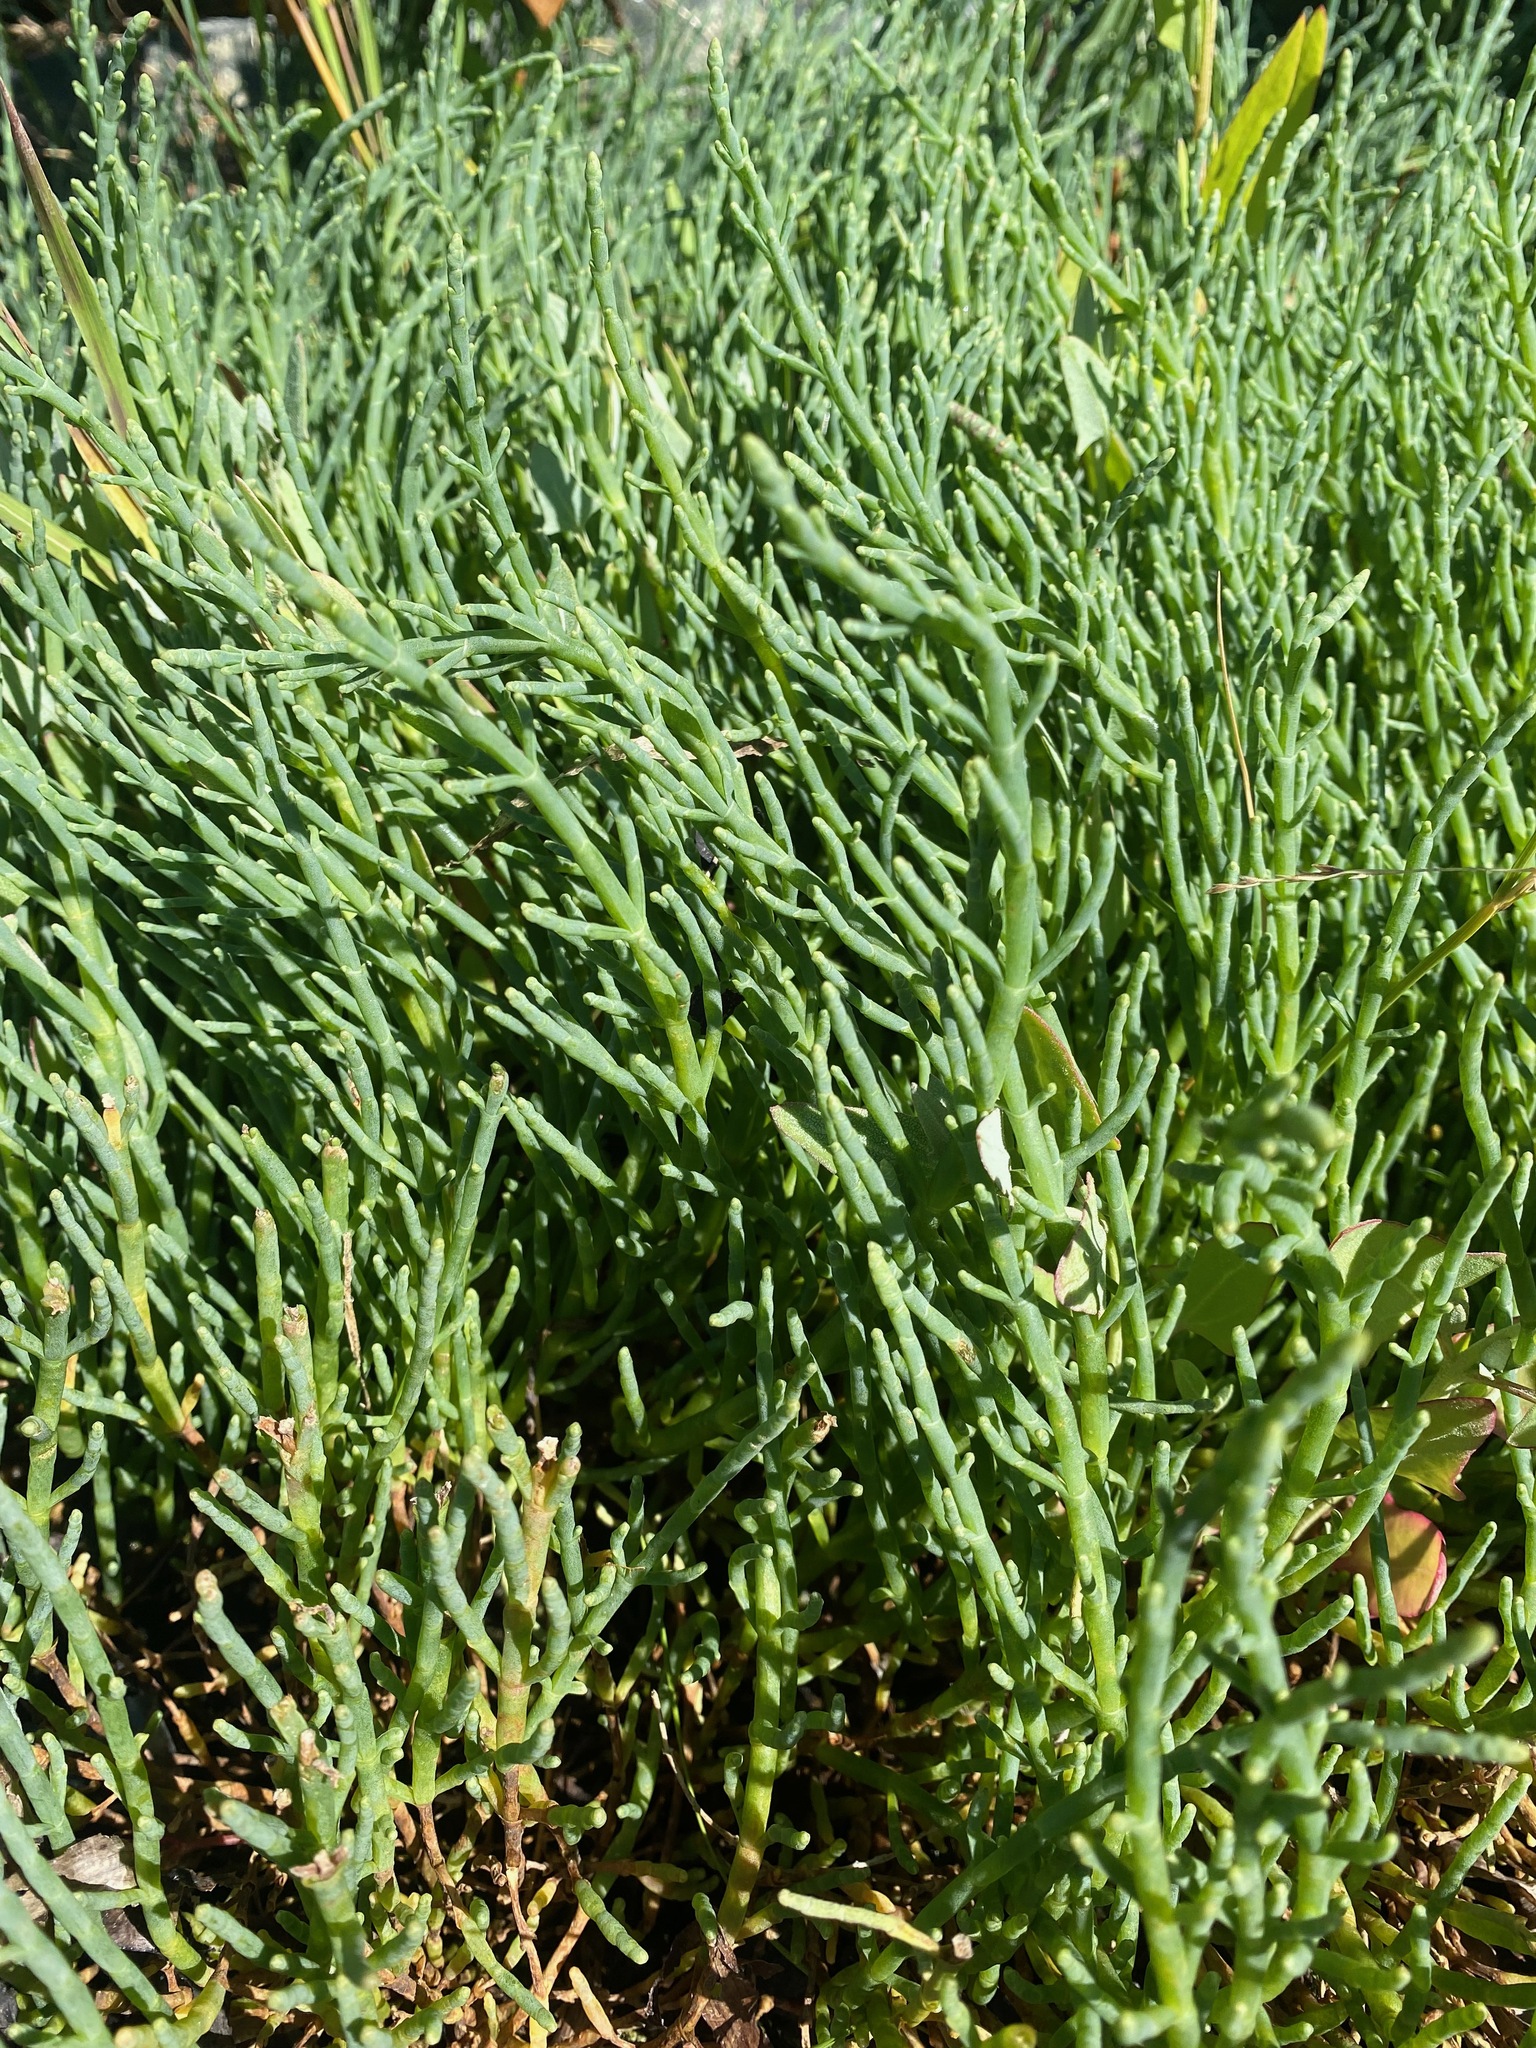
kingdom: Plantae
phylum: Tracheophyta
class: Magnoliopsida
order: Caryophyllales
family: Amaranthaceae
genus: Salicornia
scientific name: Salicornia pacifica
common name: Pacific glasswort
